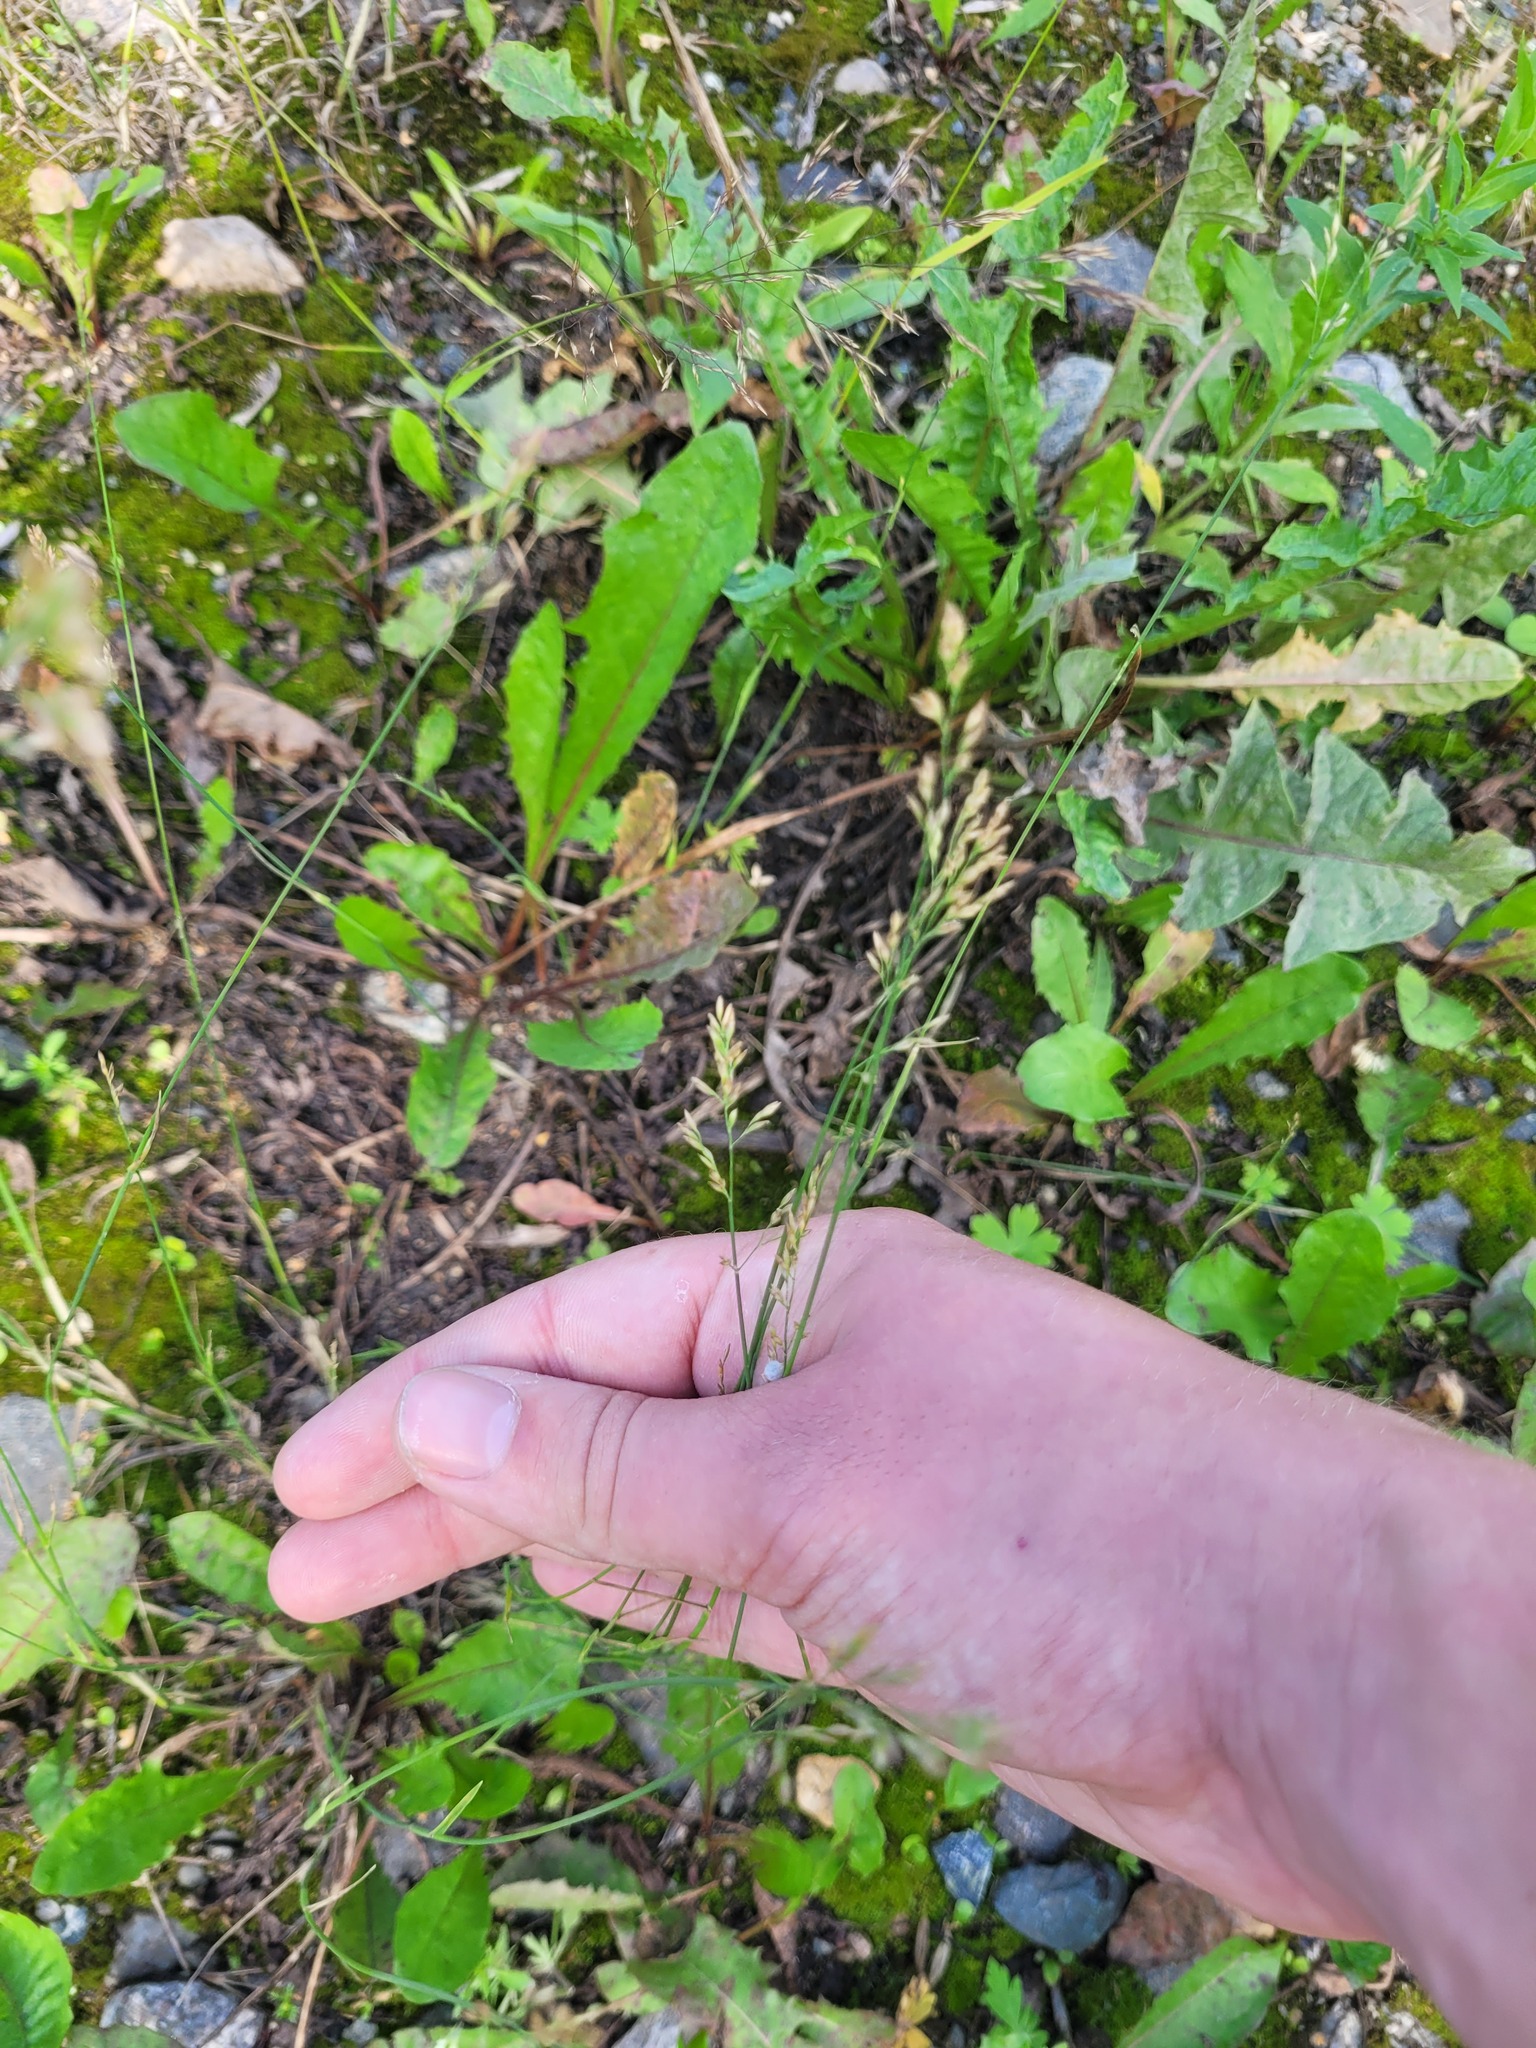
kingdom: Plantae
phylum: Tracheophyta
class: Liliopsida
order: Poales
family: Poaceae
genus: Poa
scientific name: Poa compressa
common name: Canada bluegrass
